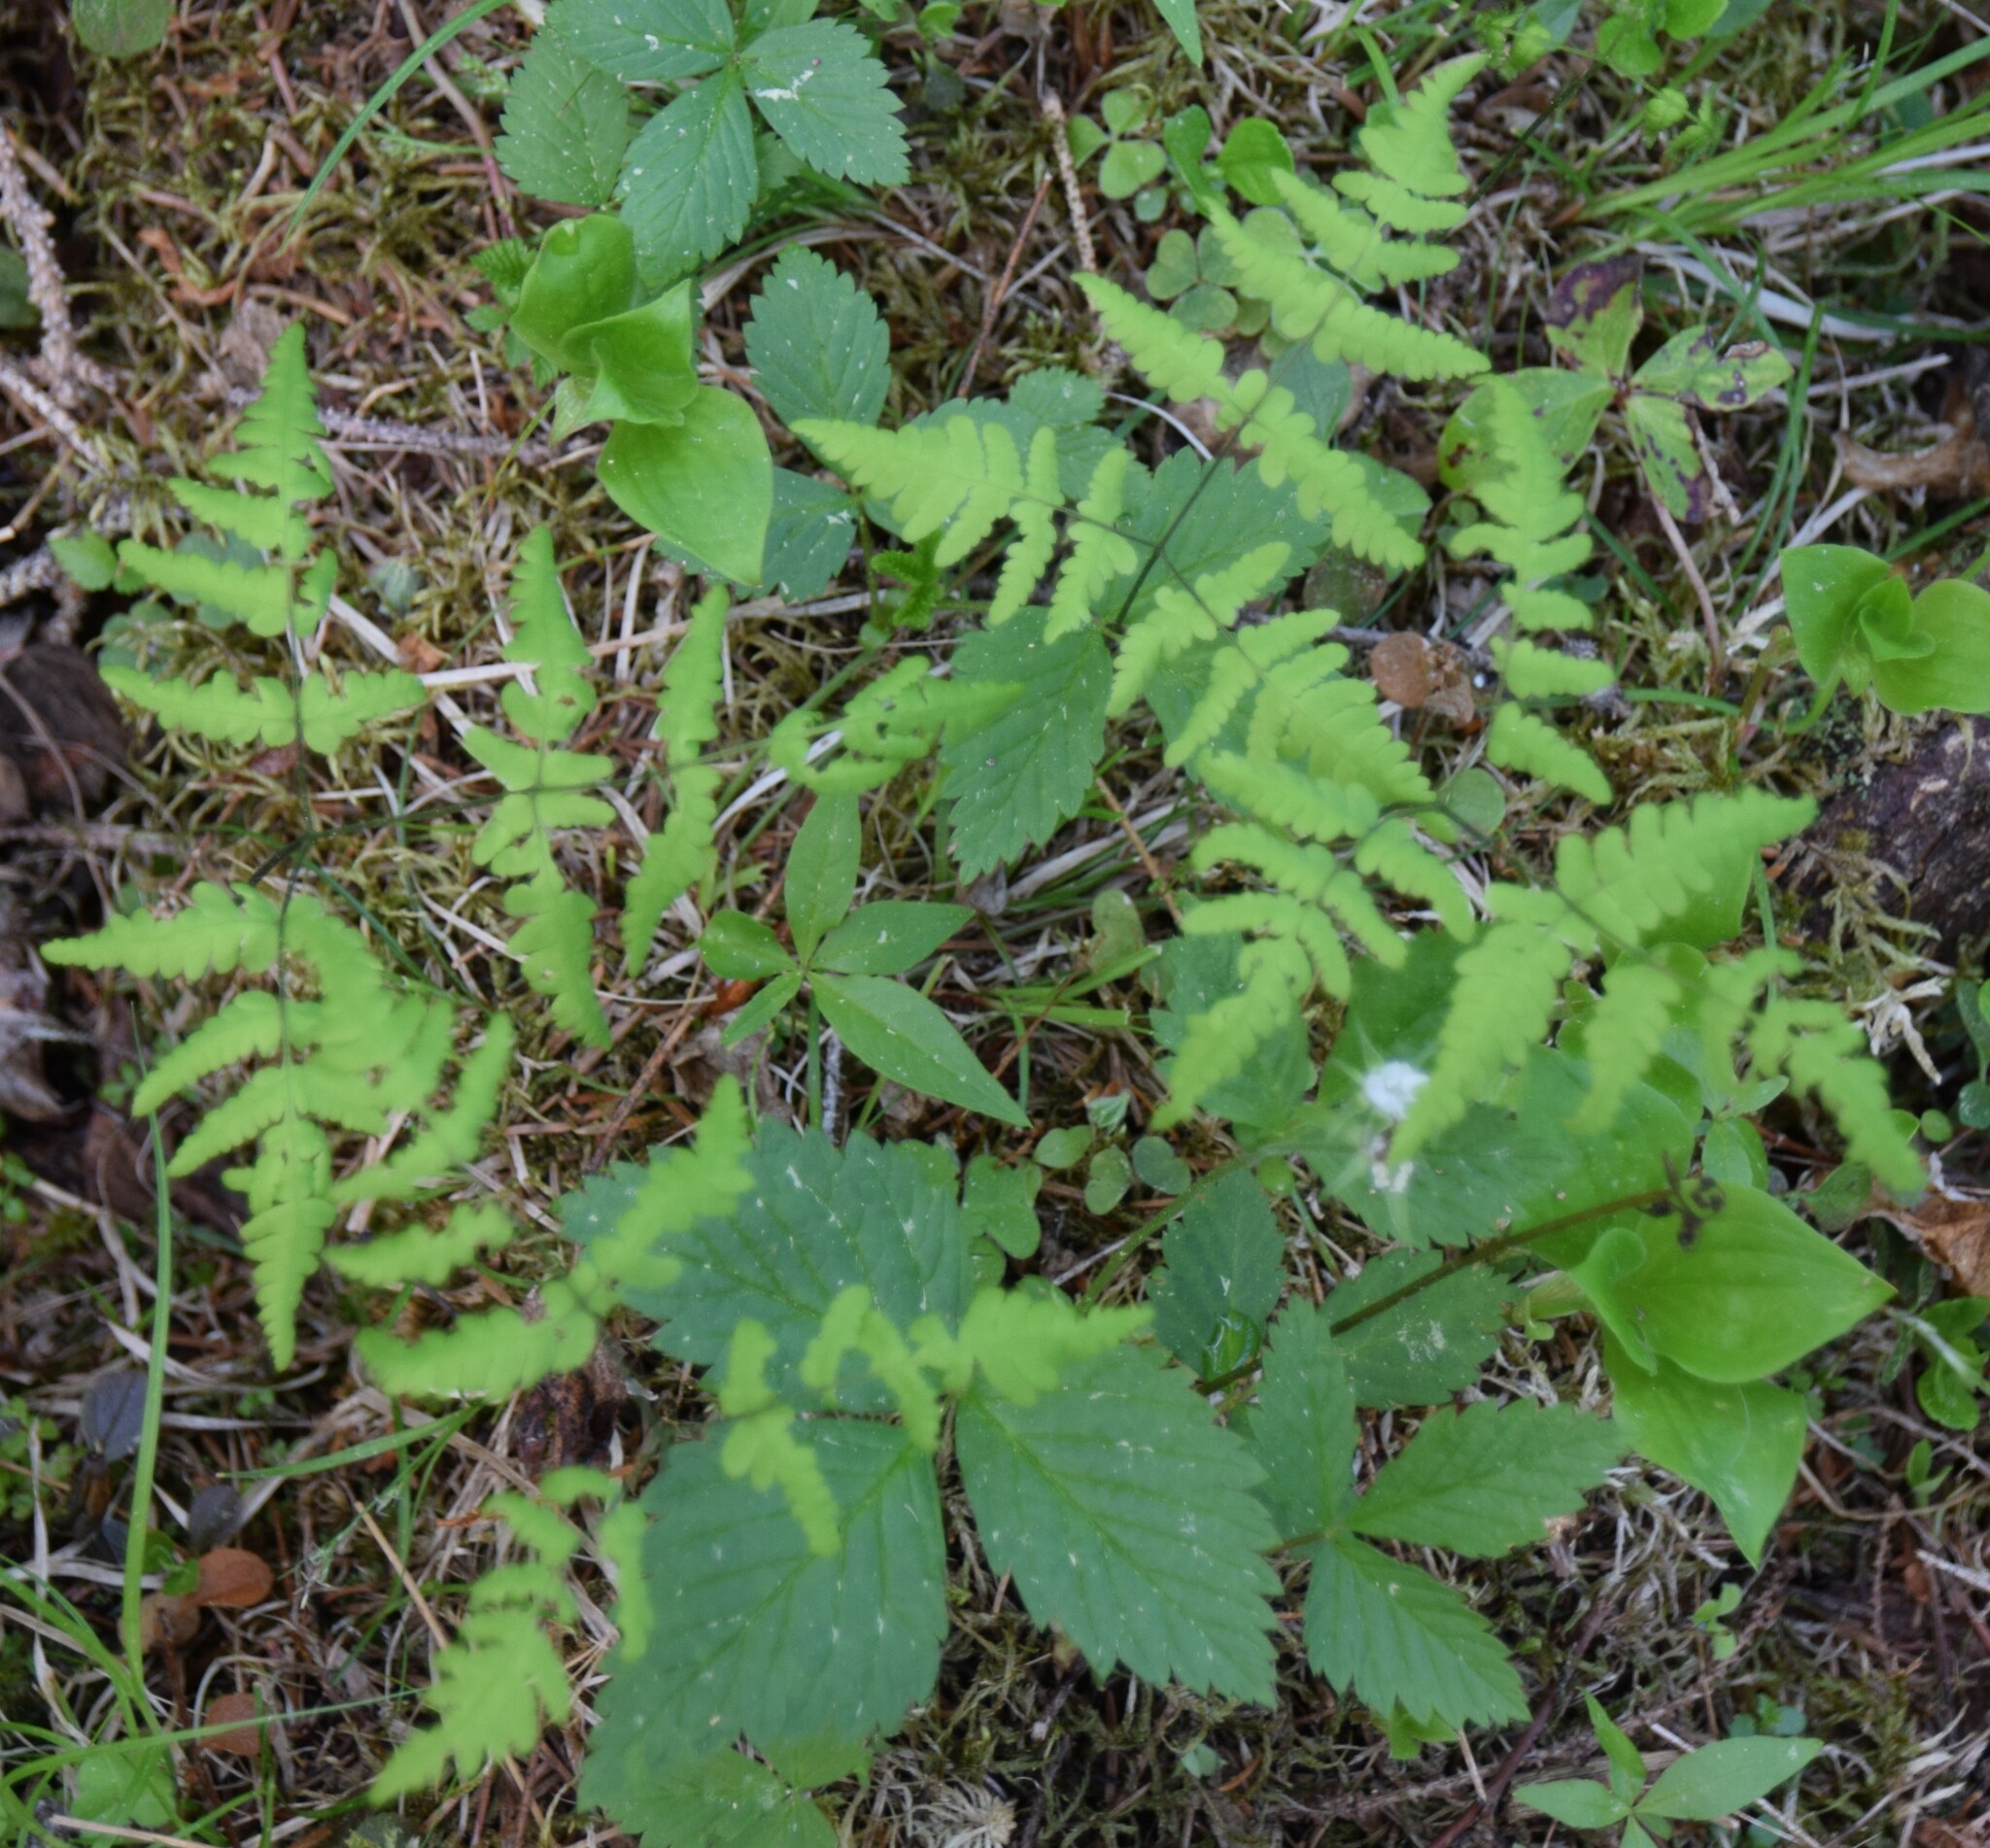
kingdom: Plantae
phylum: Tracheophyta
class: Polypodiopsida
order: Polypodiales
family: Cystopteridaceae
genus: Gymnocarpium
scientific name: Gymnocarpium dryopteris
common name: Oak fern
